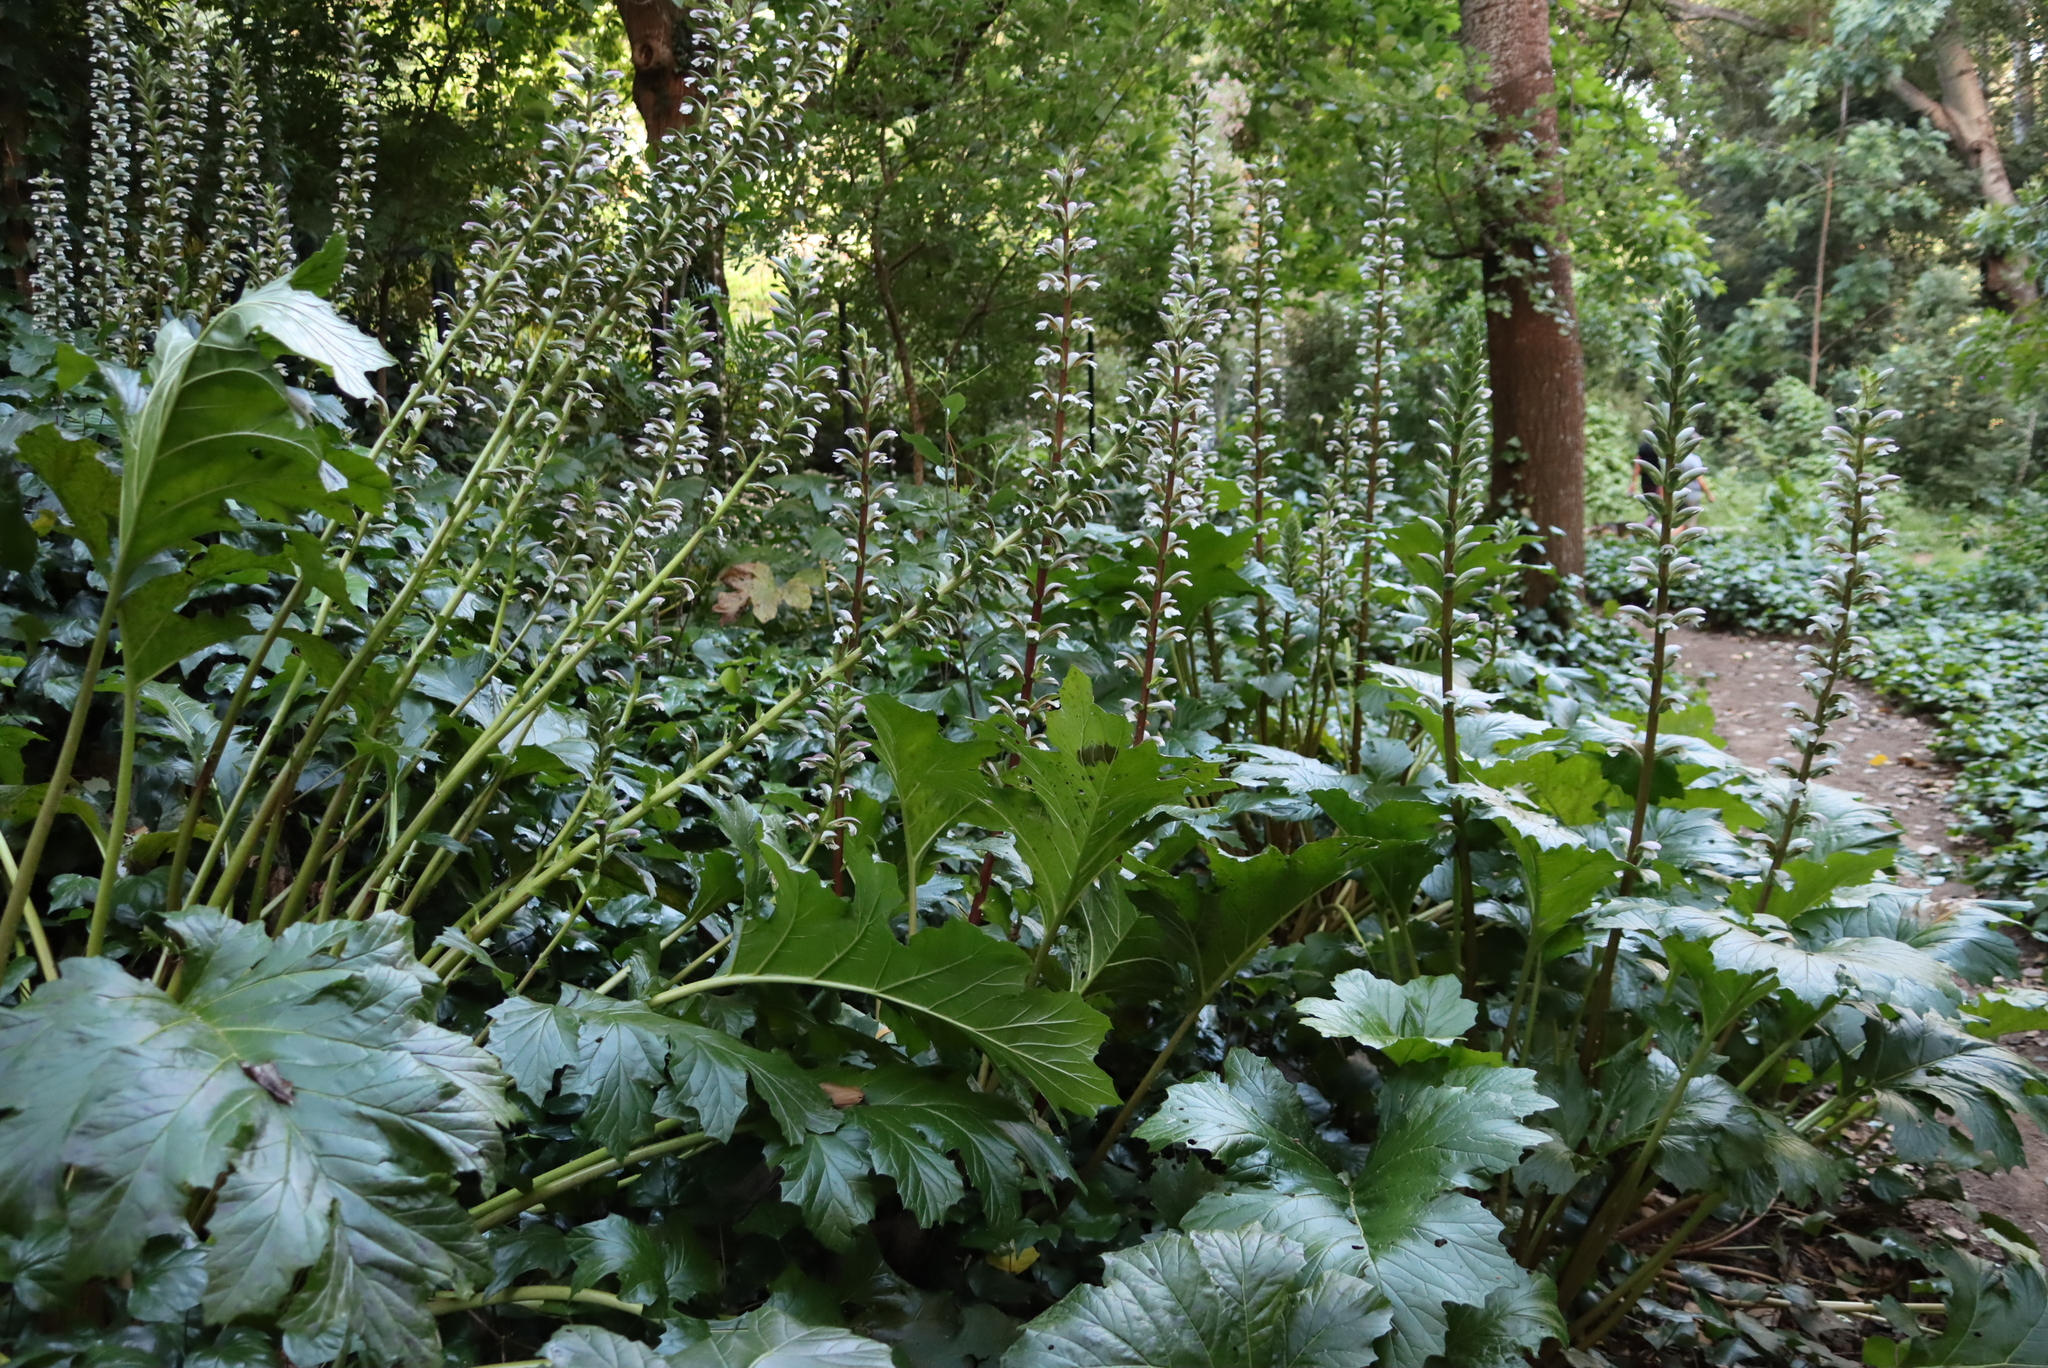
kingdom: Plantae
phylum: Tracheophyta
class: Magnoliopsida
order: Lamiales
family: Acanthaceae
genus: Acanthus
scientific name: Acanthus mollis
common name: Bear's-breech
